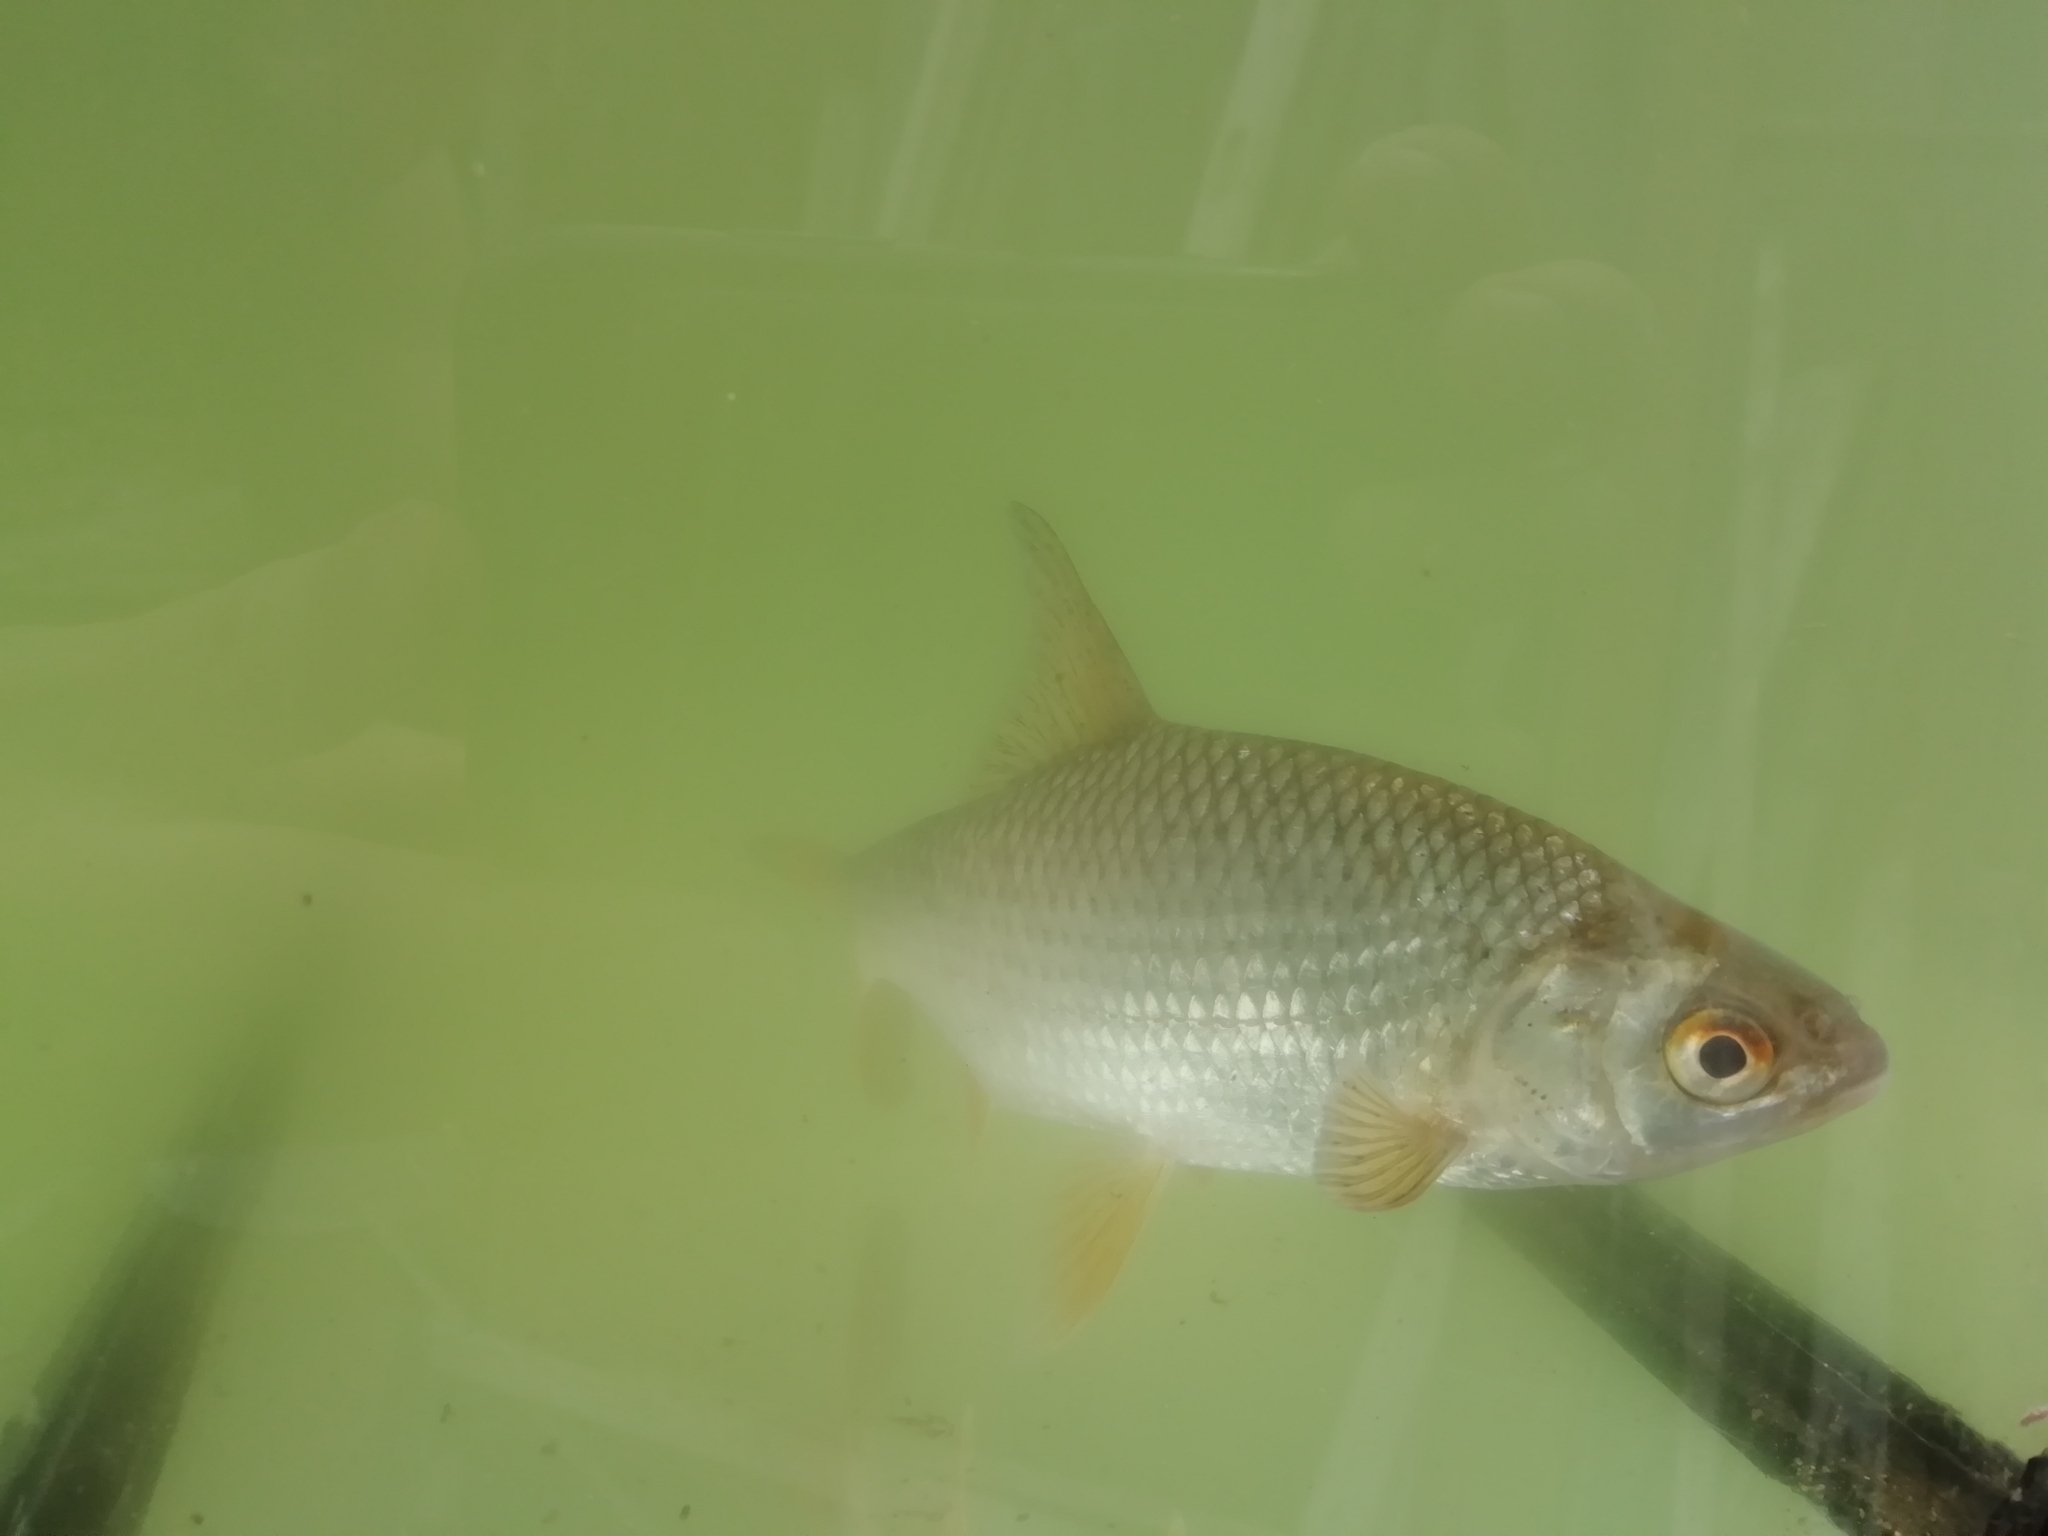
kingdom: Animalia
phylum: Chordata
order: Cypriniformes
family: Cyprinidae
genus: Rutilus
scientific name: Rutilus rutilus
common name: Roach
